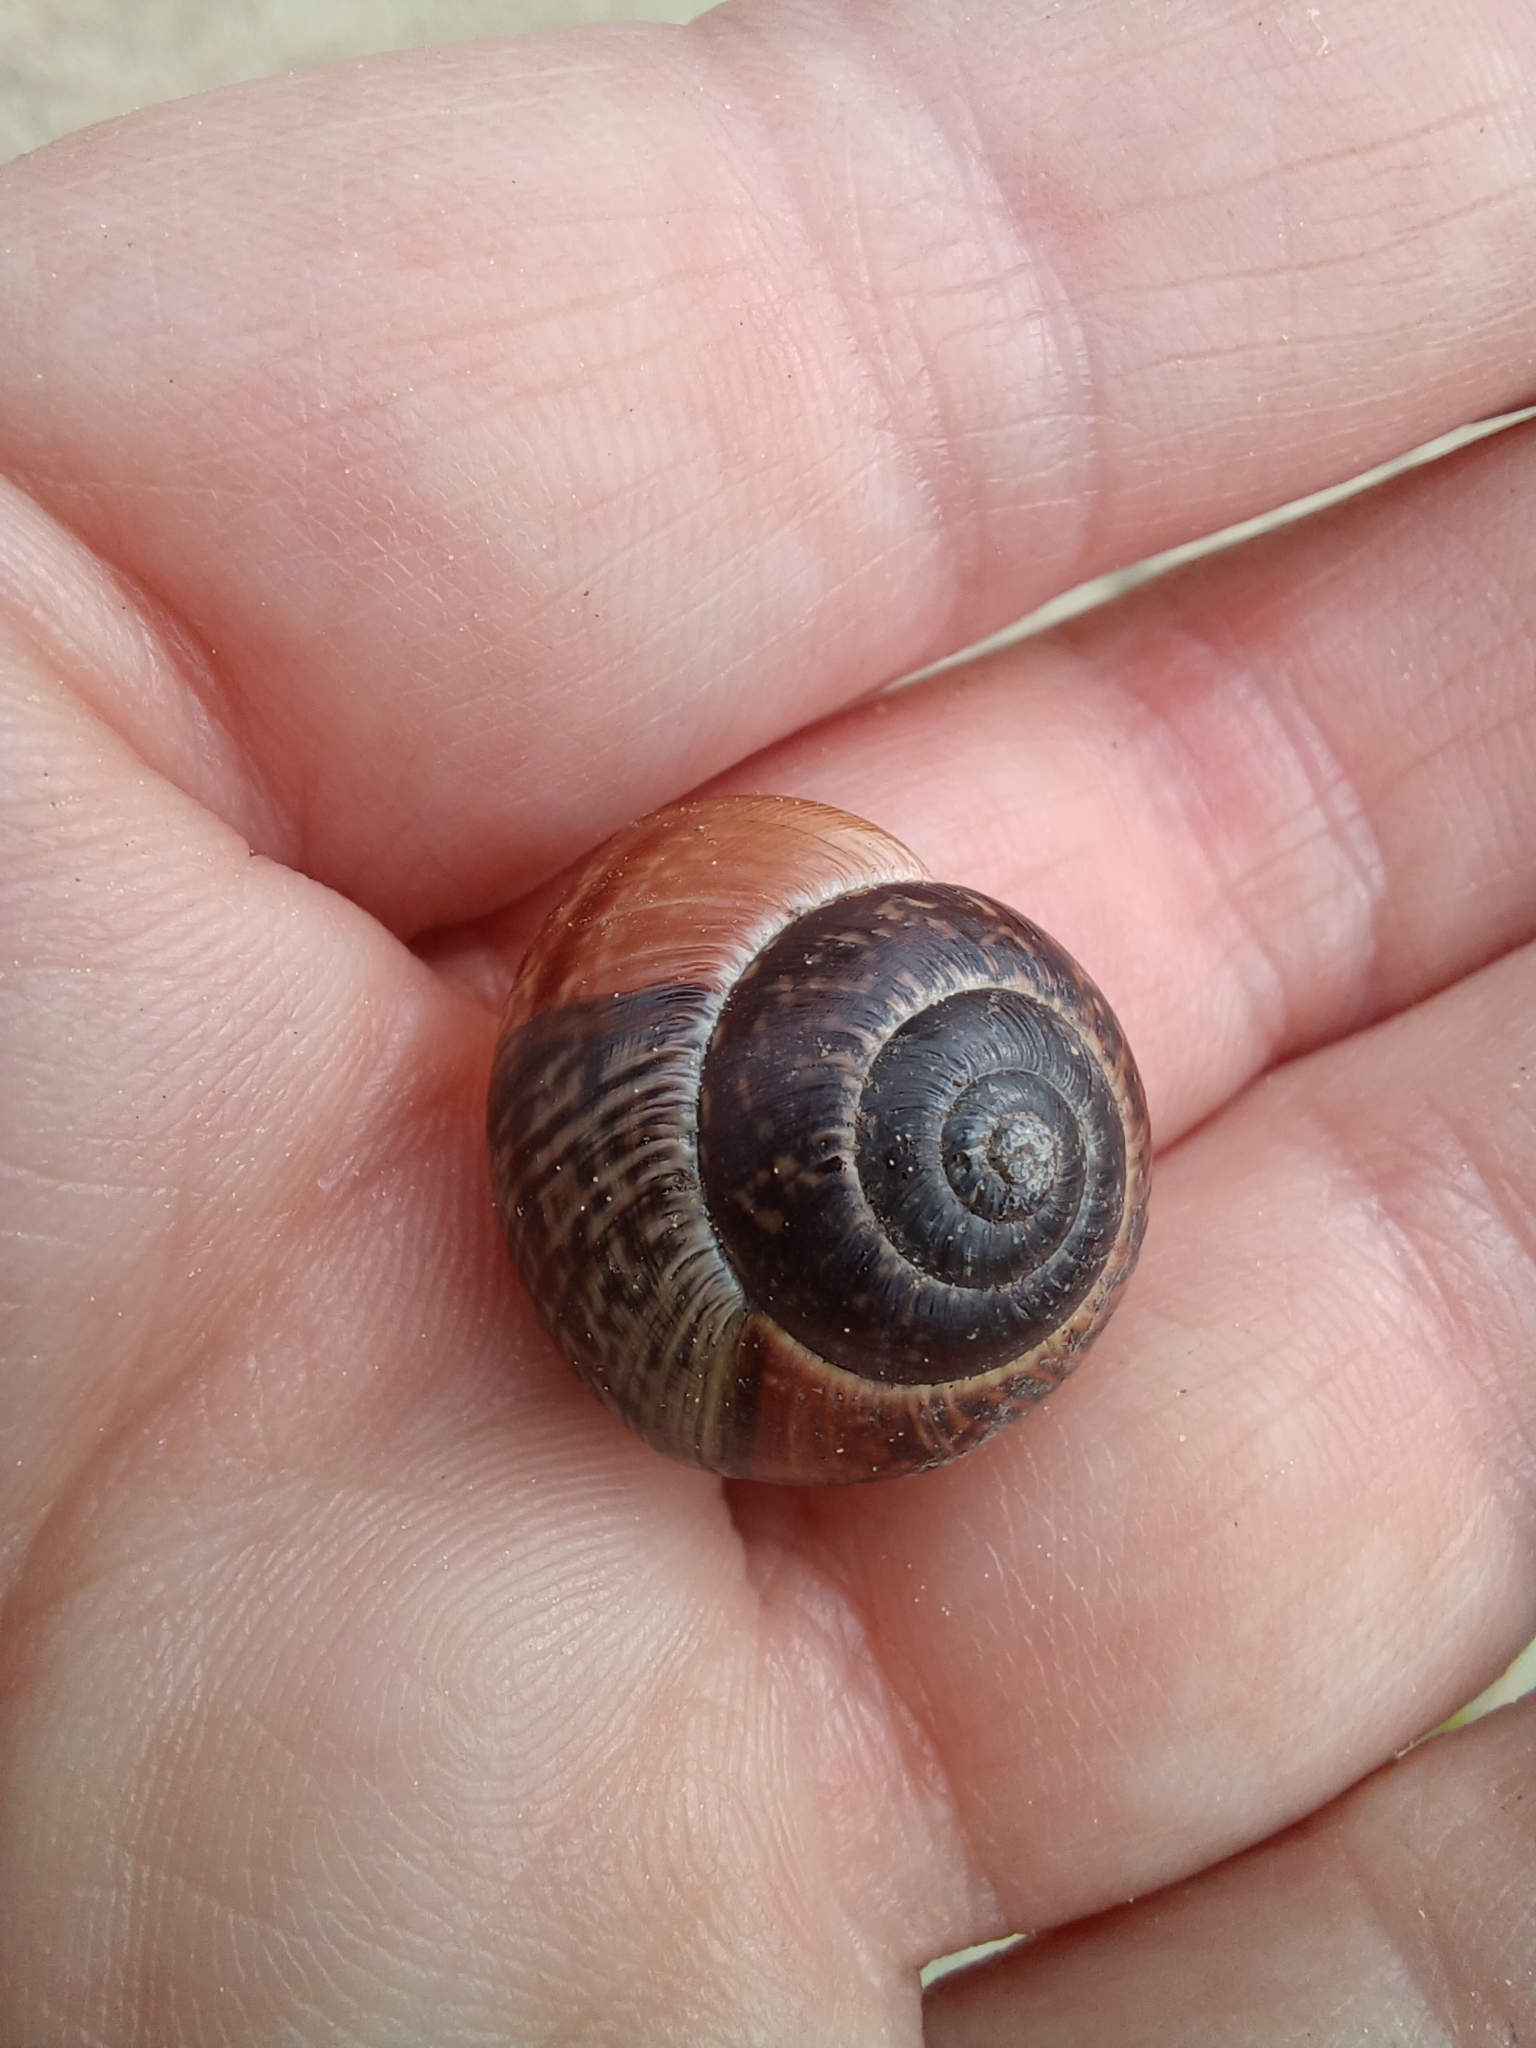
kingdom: Animalia
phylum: Mollusca
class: Gastropoda
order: Stylommatophora
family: Helicidae
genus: Arianta
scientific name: Arianta arbustorum
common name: Copse snail
